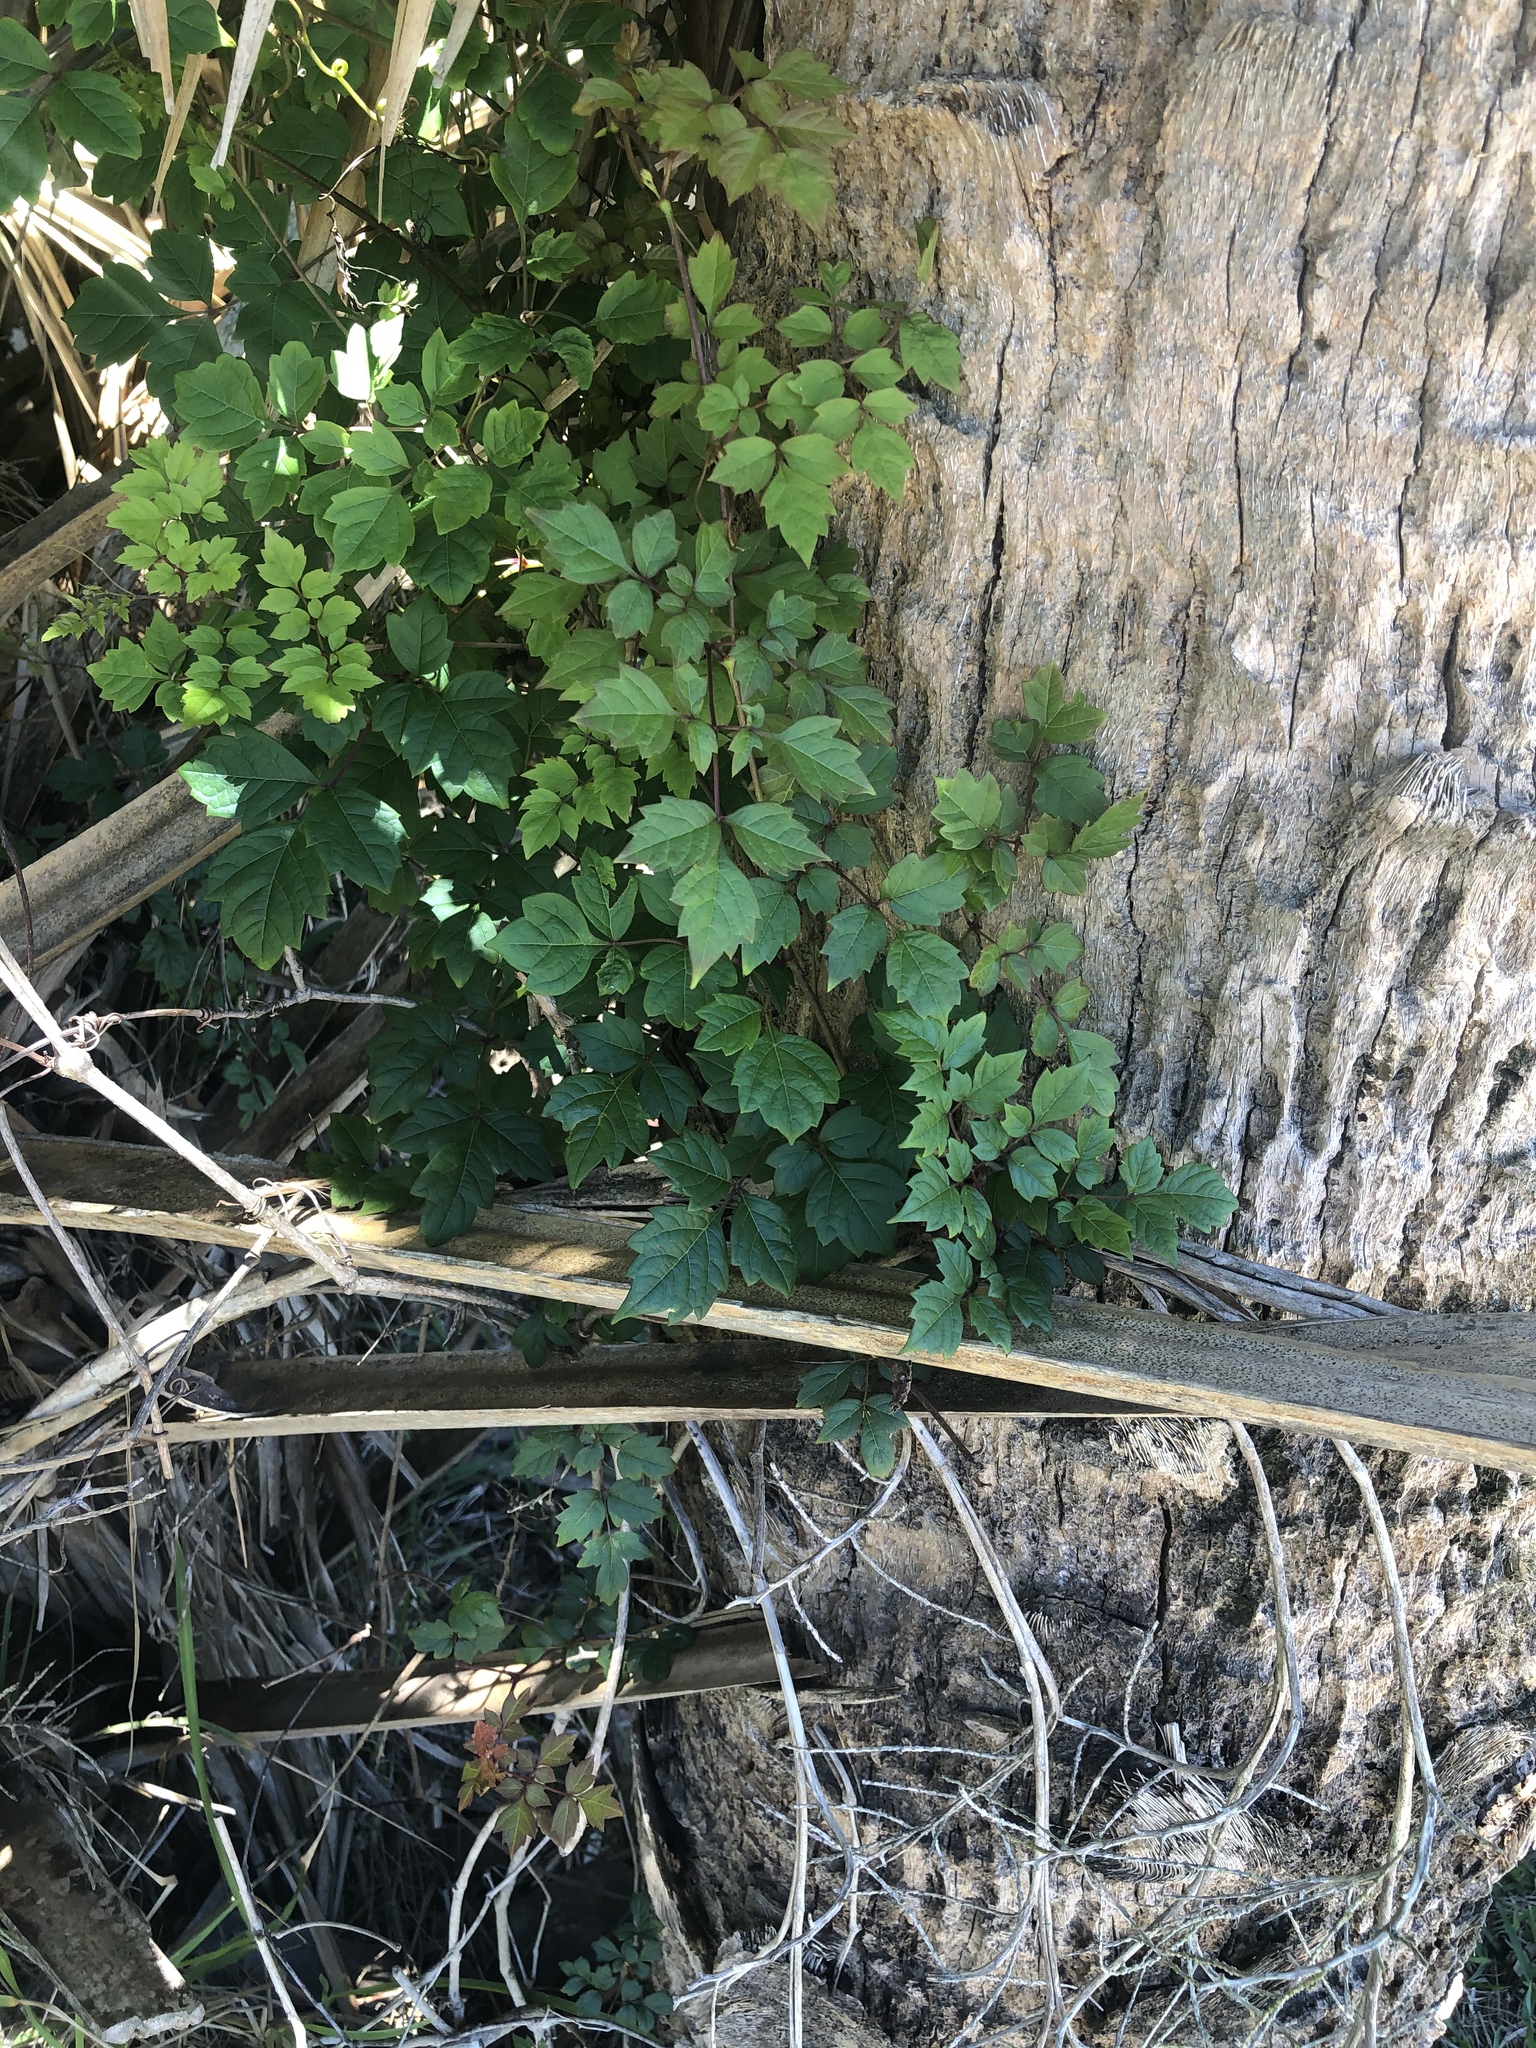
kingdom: Plantae
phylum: Tracheophyta
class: Magnoliopsida
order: Vitales
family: Vitaceae
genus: Nekemias
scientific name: Nekemias arborea
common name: Peppervine
